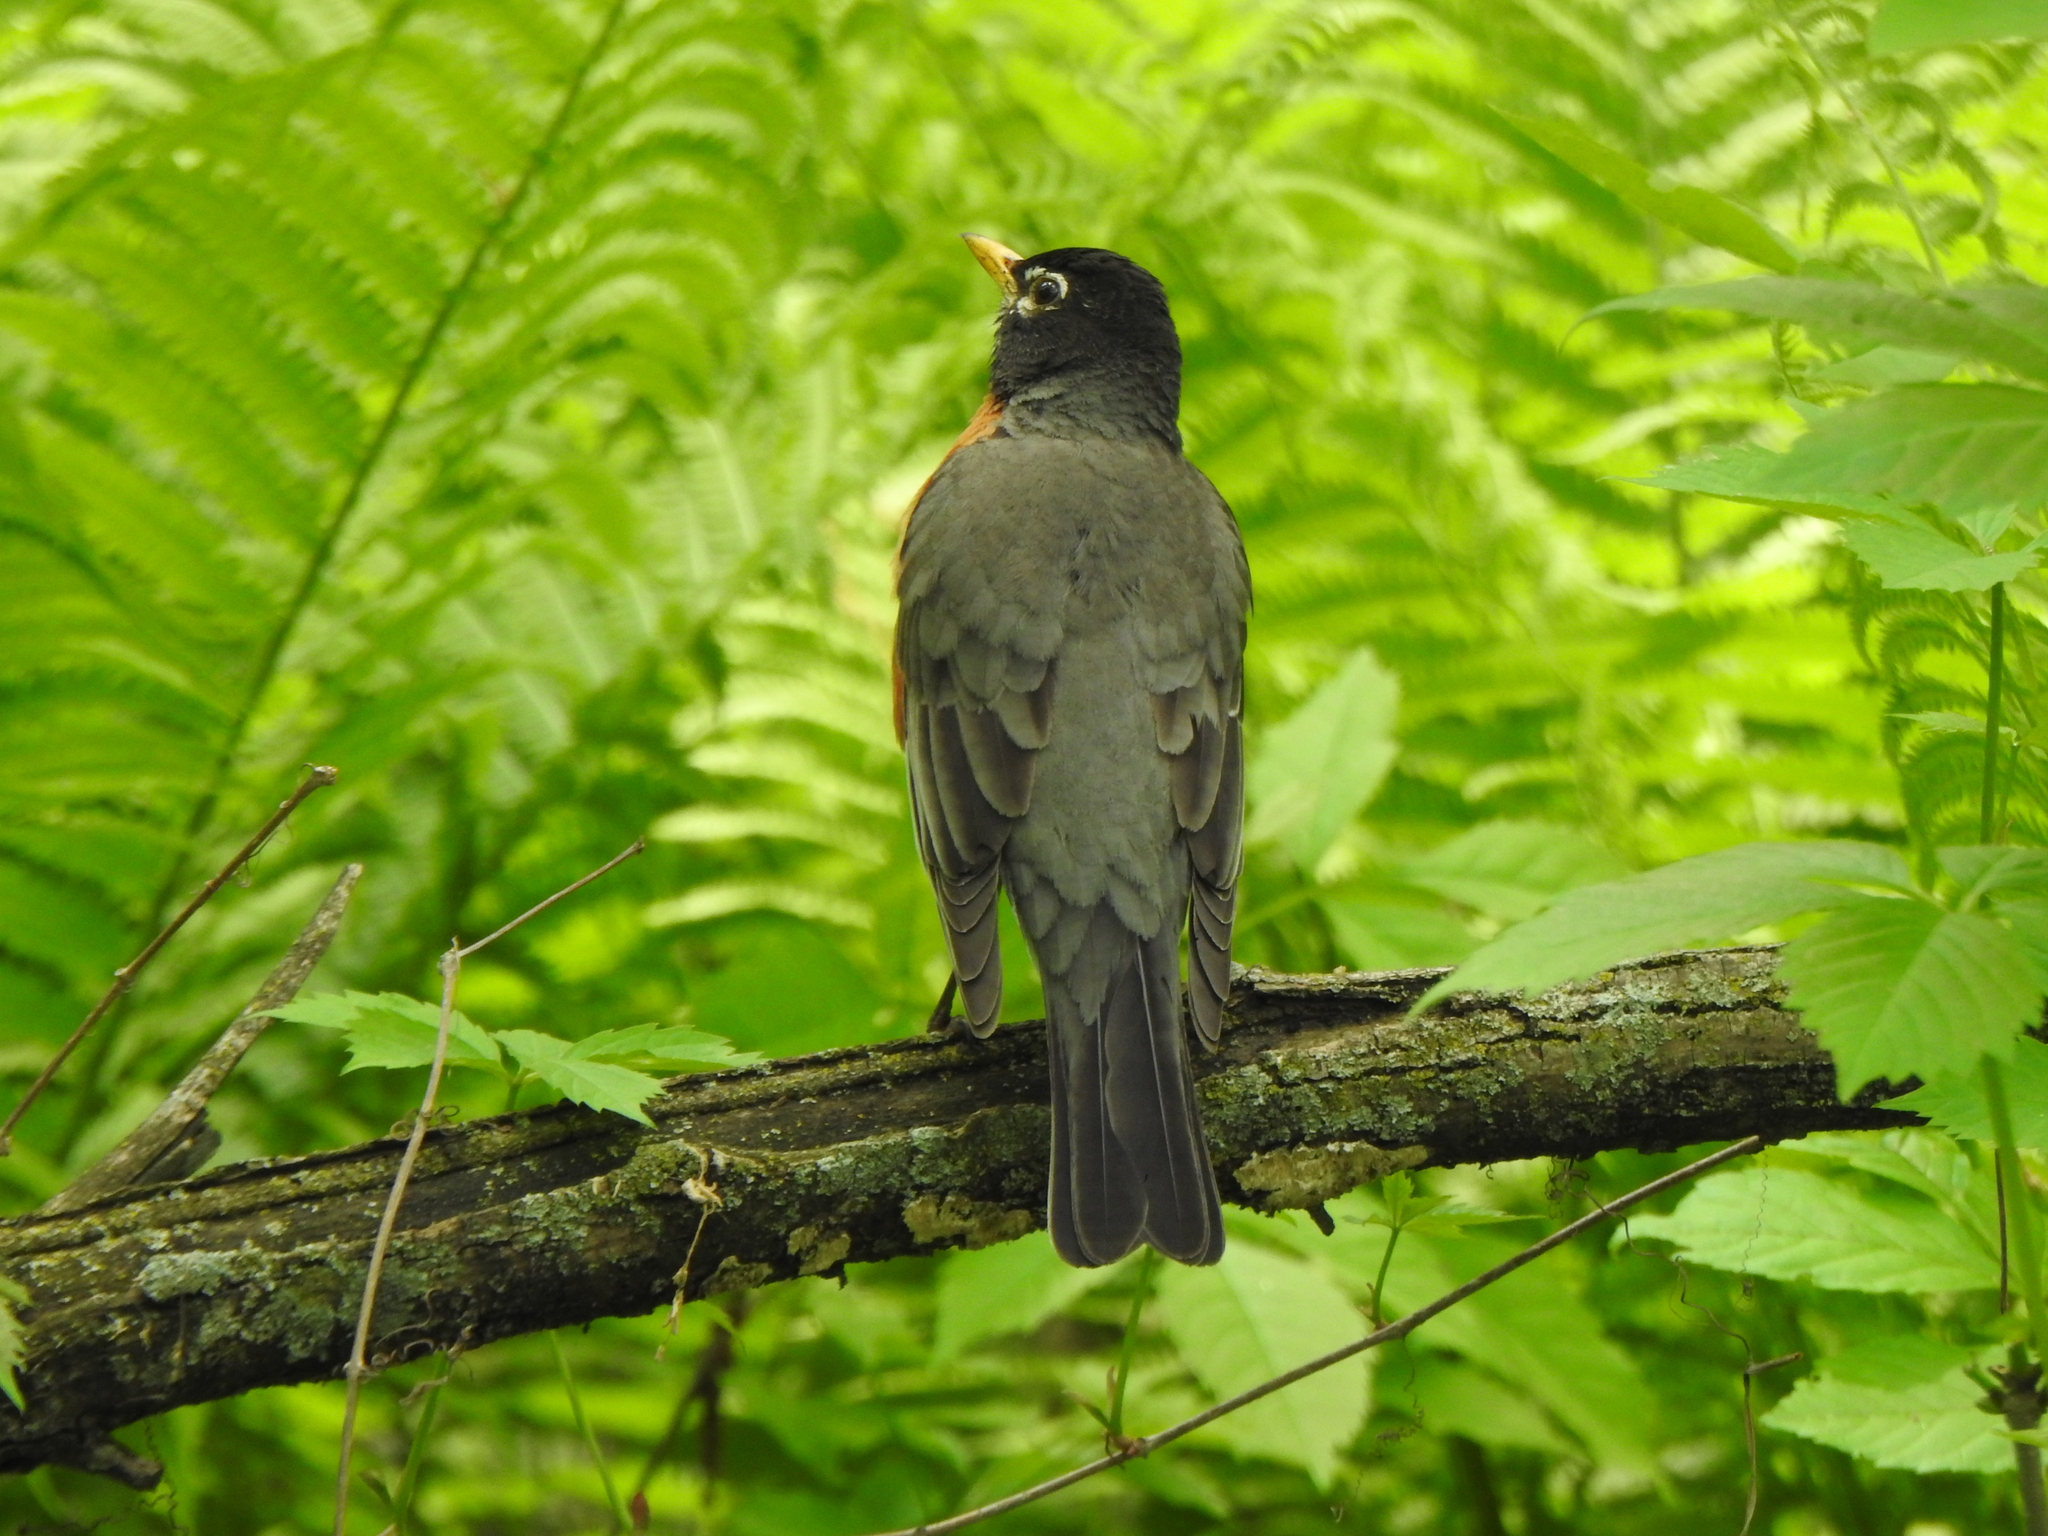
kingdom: Animalia
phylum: Chordata
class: Aves
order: Passeriformes
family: Turdidae
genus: Turdus
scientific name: Turdus migratorius
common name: American robin
